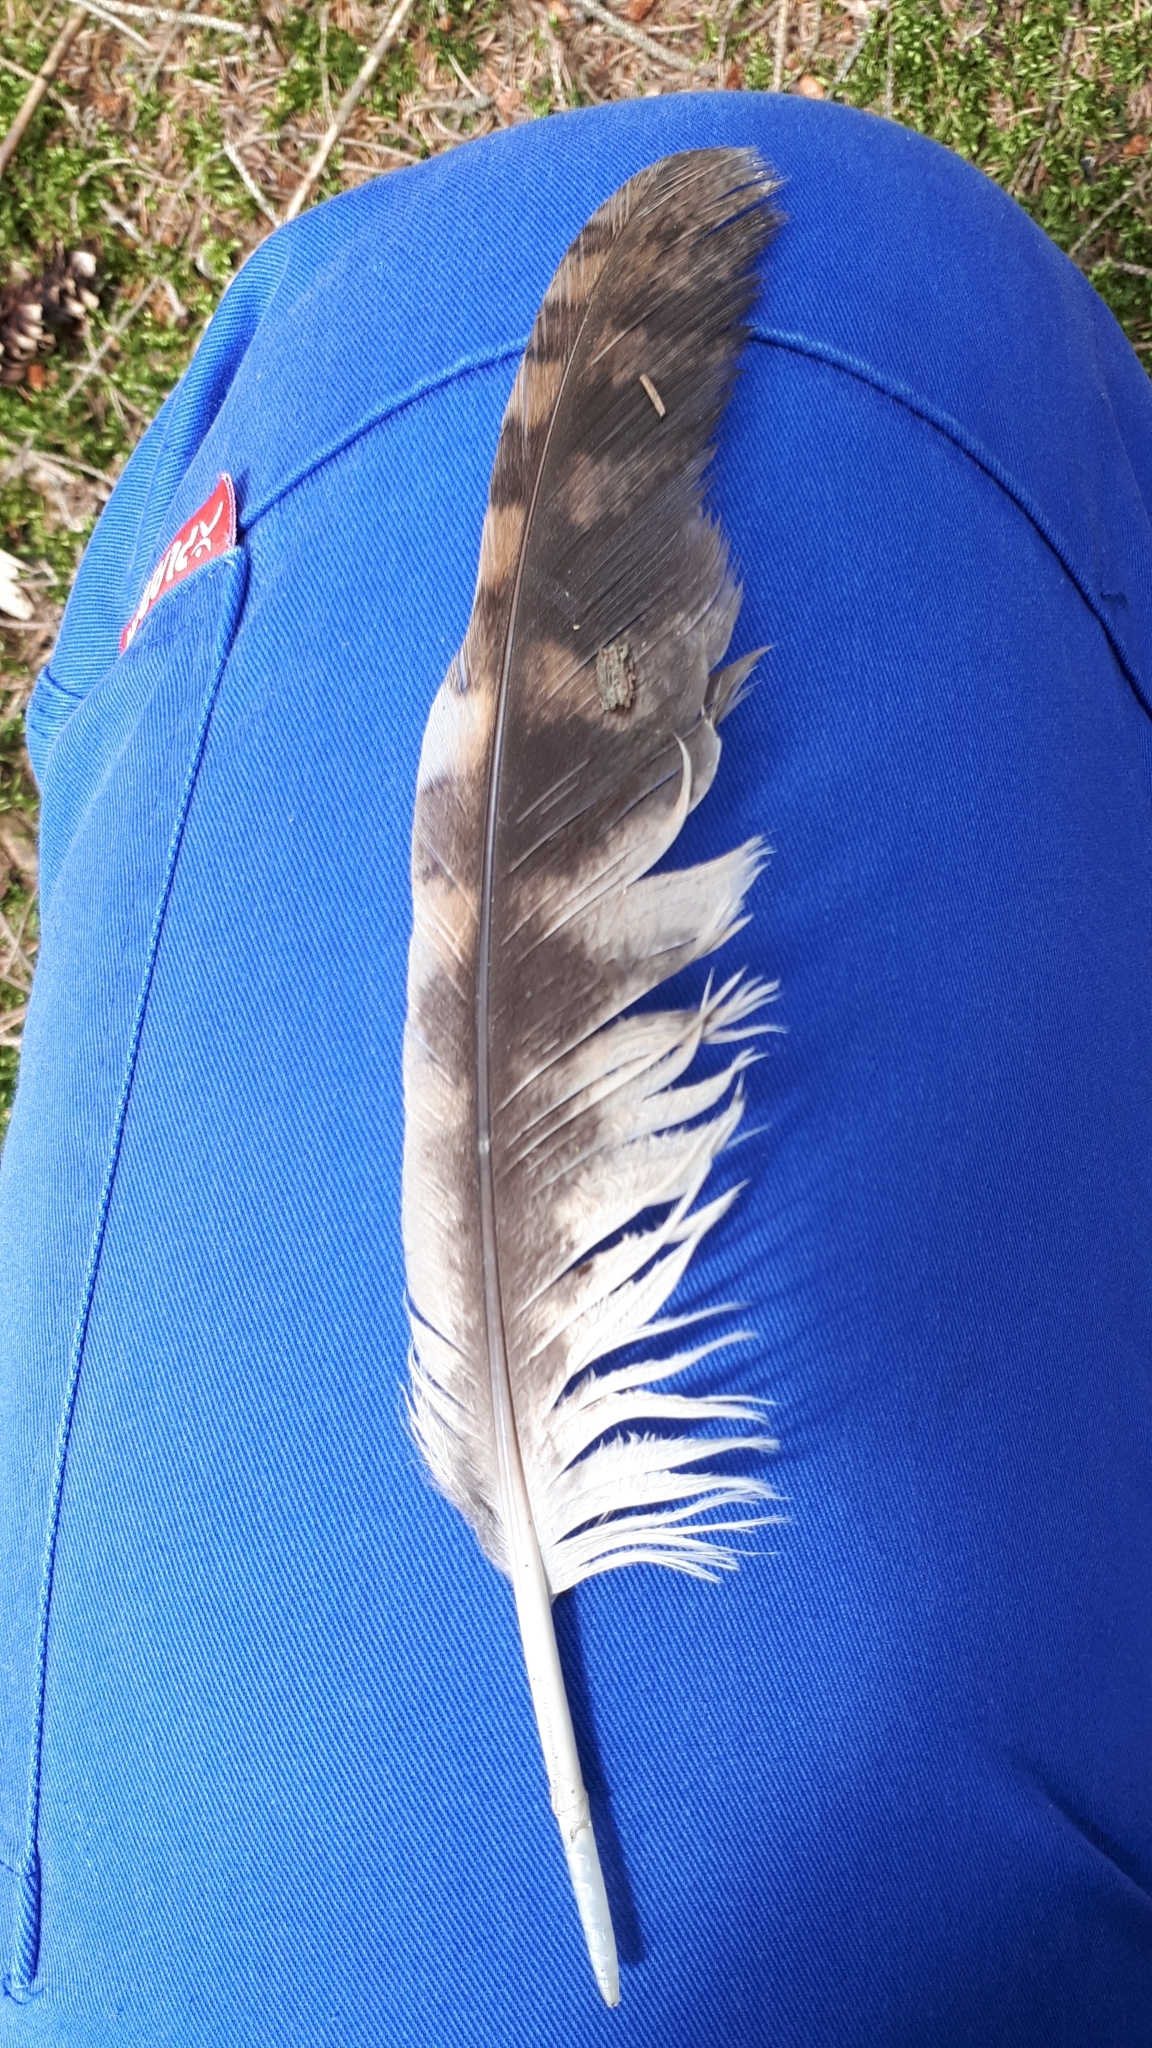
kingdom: Animalia
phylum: Chordata
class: Aves
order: Strigiformes
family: Strigidae
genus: Strix
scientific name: Strix aluco
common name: Tawny owl
